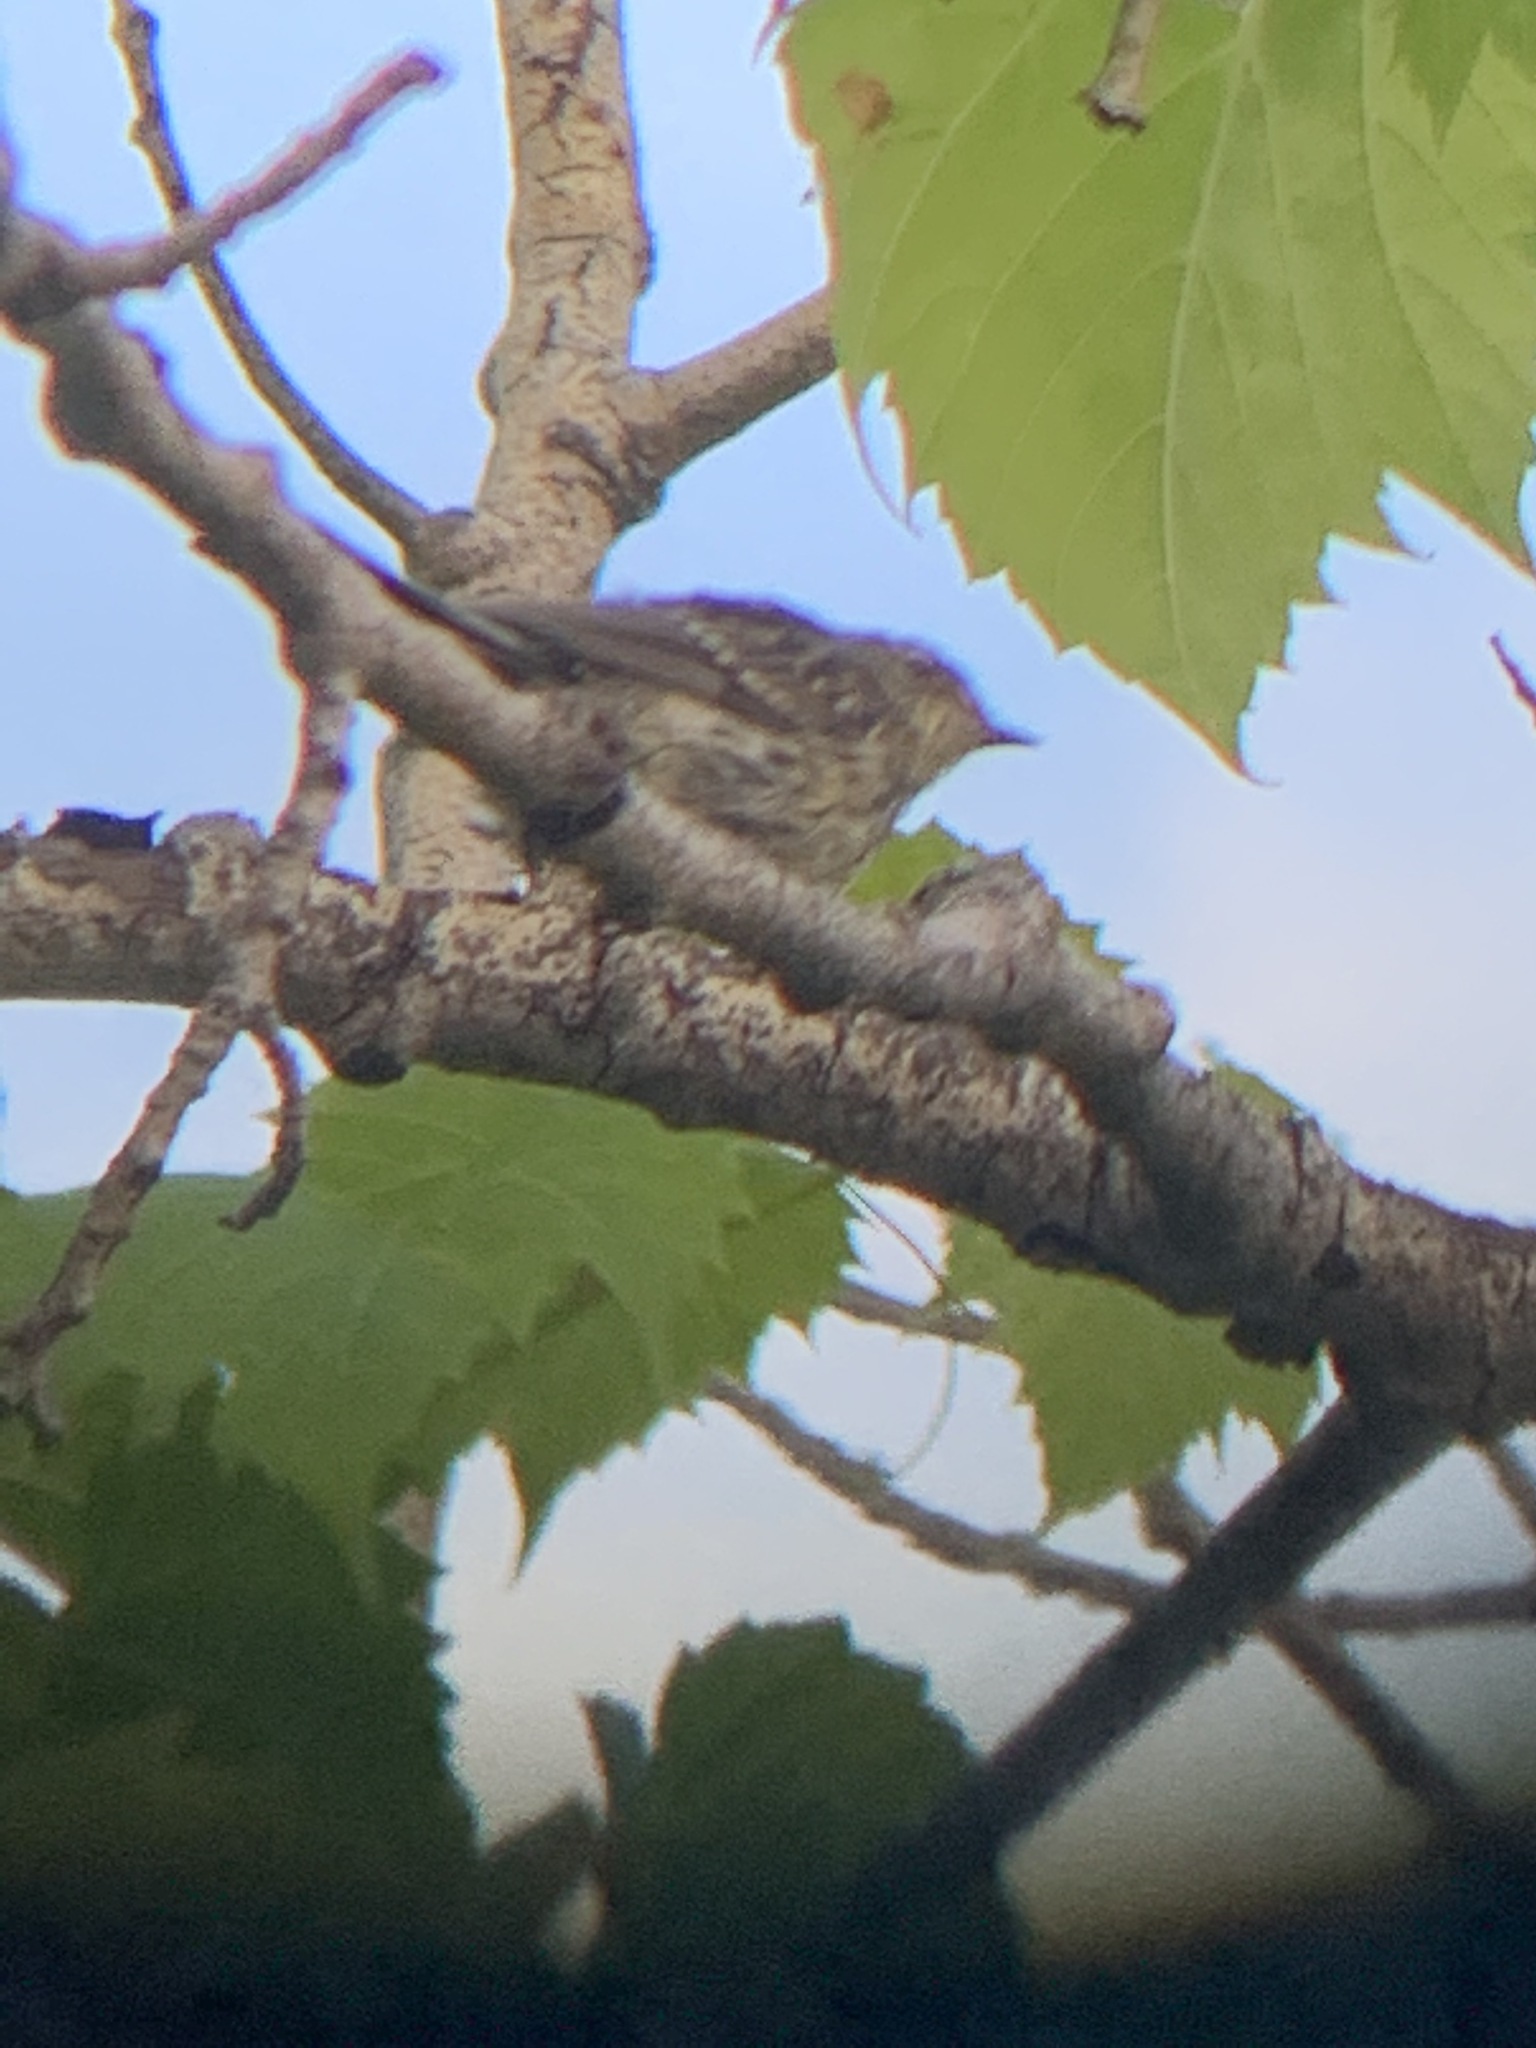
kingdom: Animalia
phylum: Chordata
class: Aves
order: Passeriformes
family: Parulidae
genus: Setophaga
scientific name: Setophaga coronata
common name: Myrtle warbler
